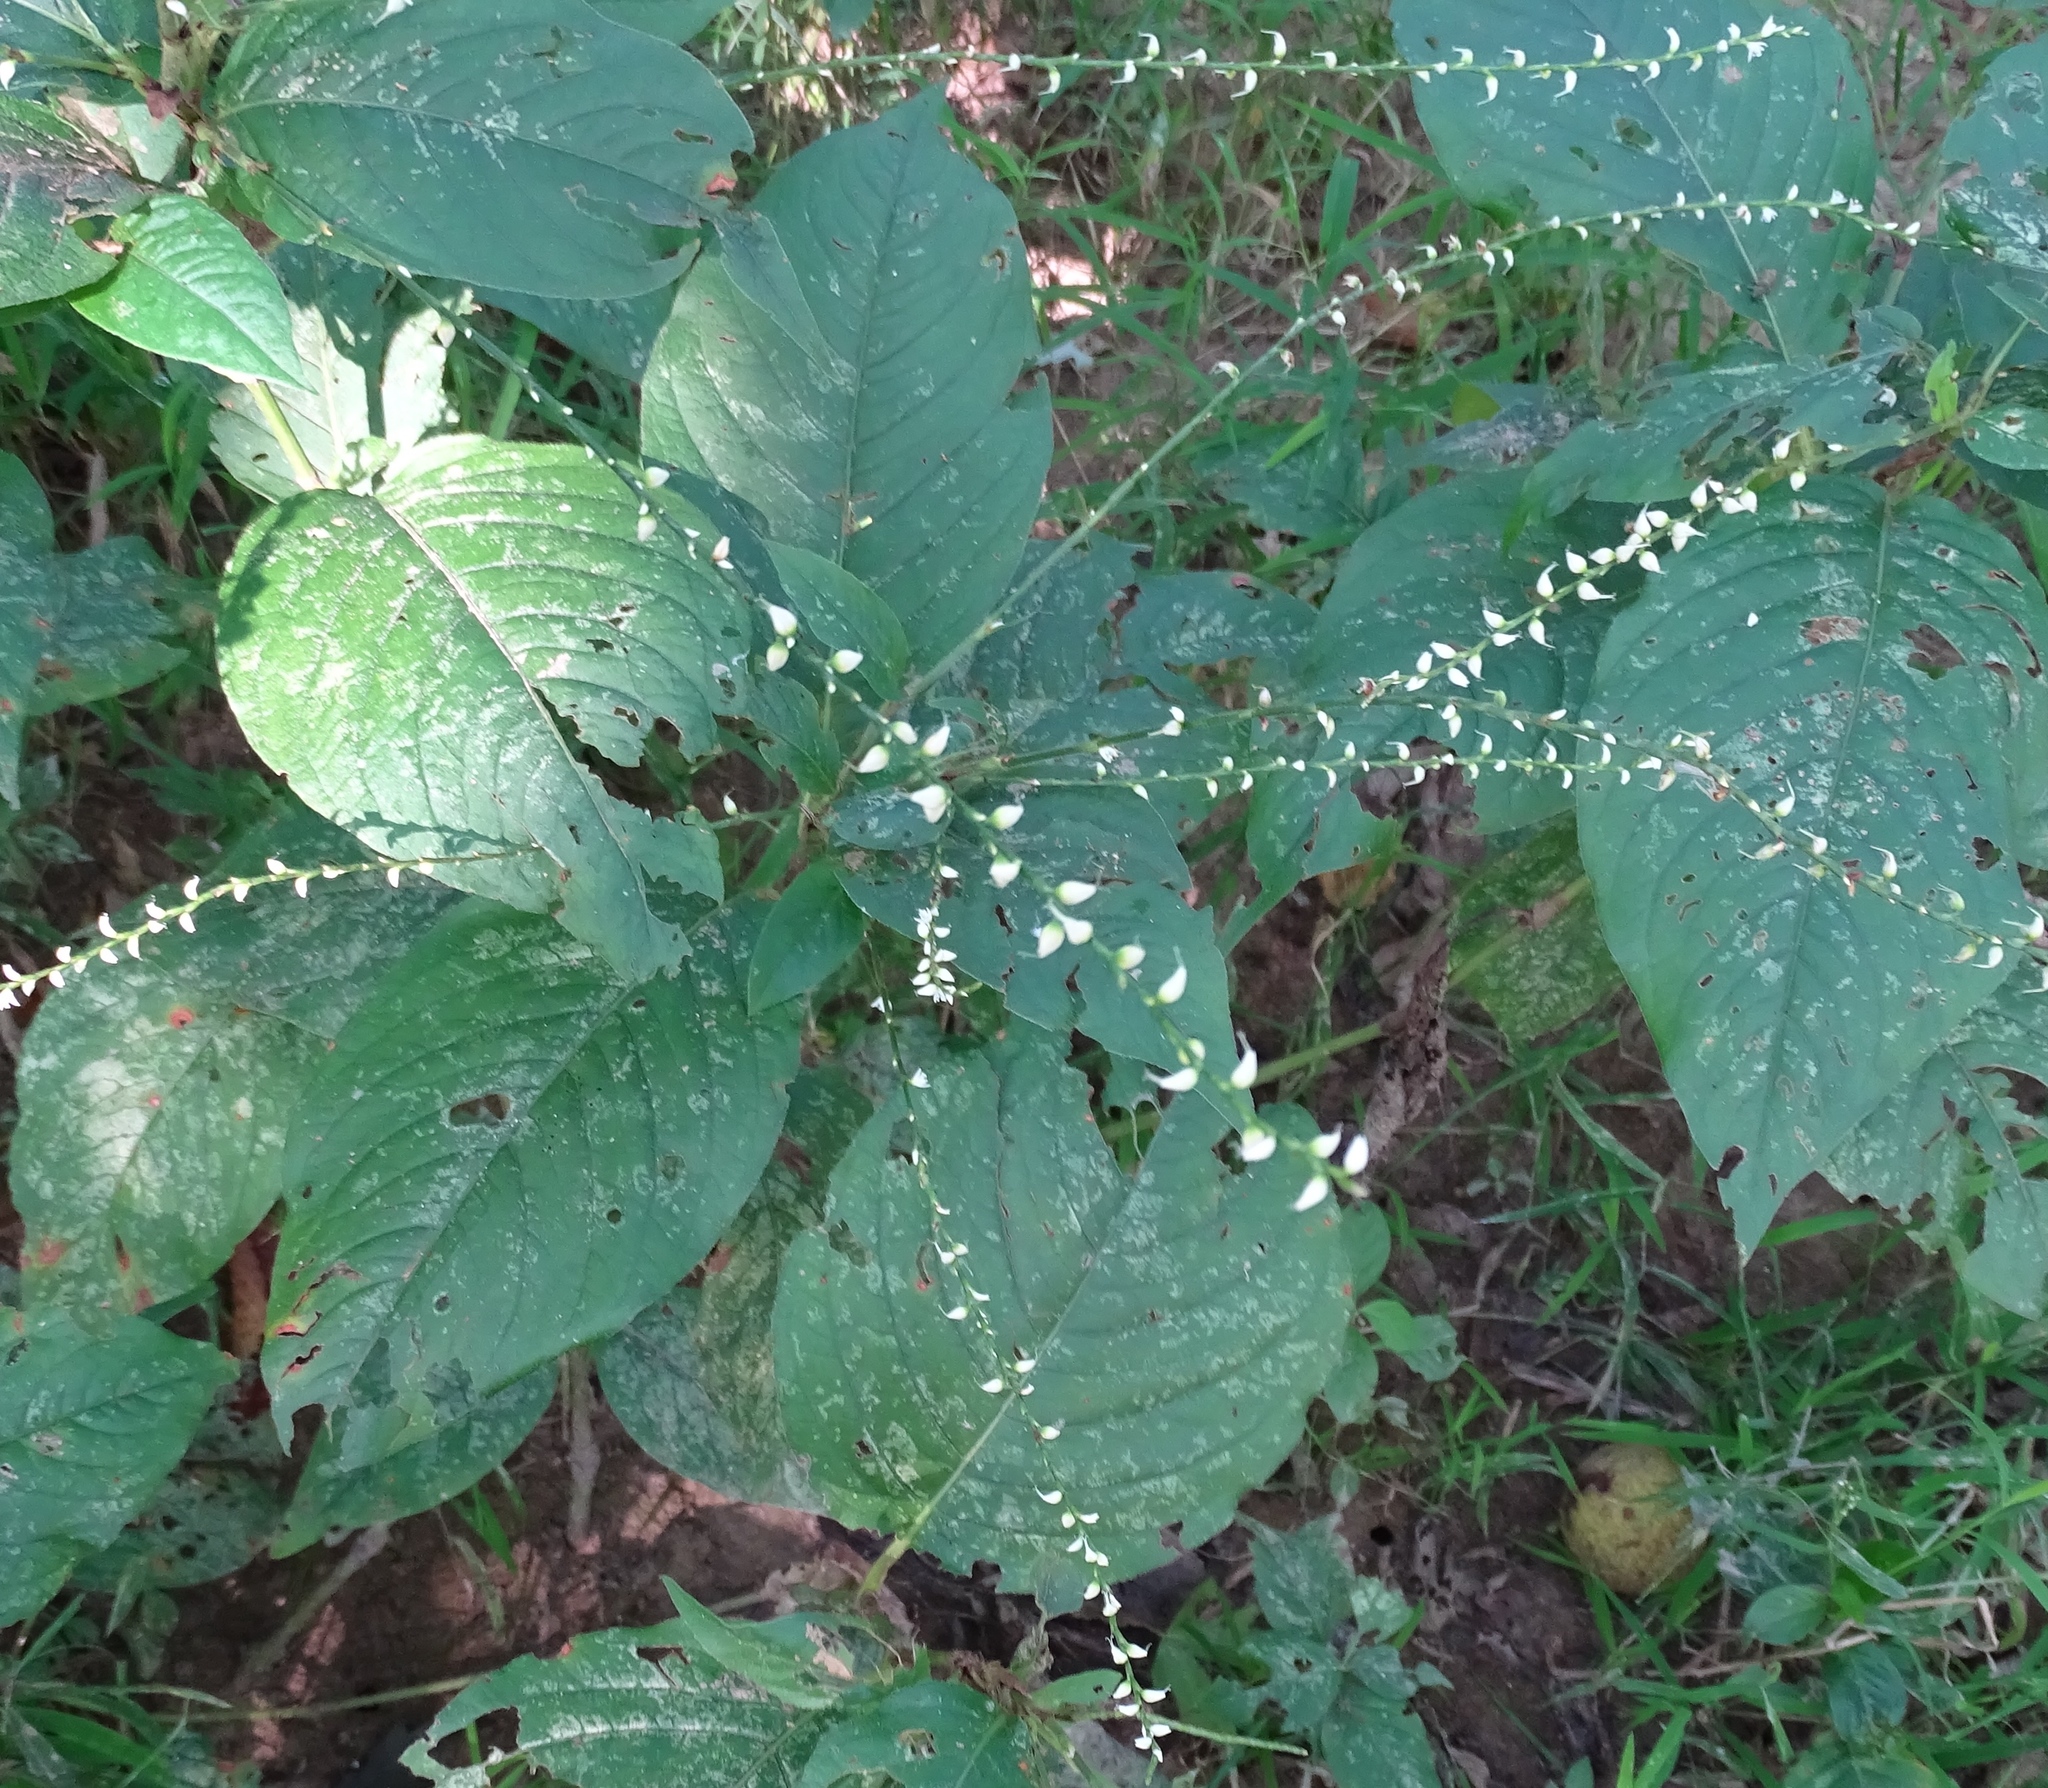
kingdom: Plantae
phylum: Tracheophyta
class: Magnoliopsida
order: Caryophyllales
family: Polygonaceae
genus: Persicaria
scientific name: Persicaria virginiana
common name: Jumpseed
